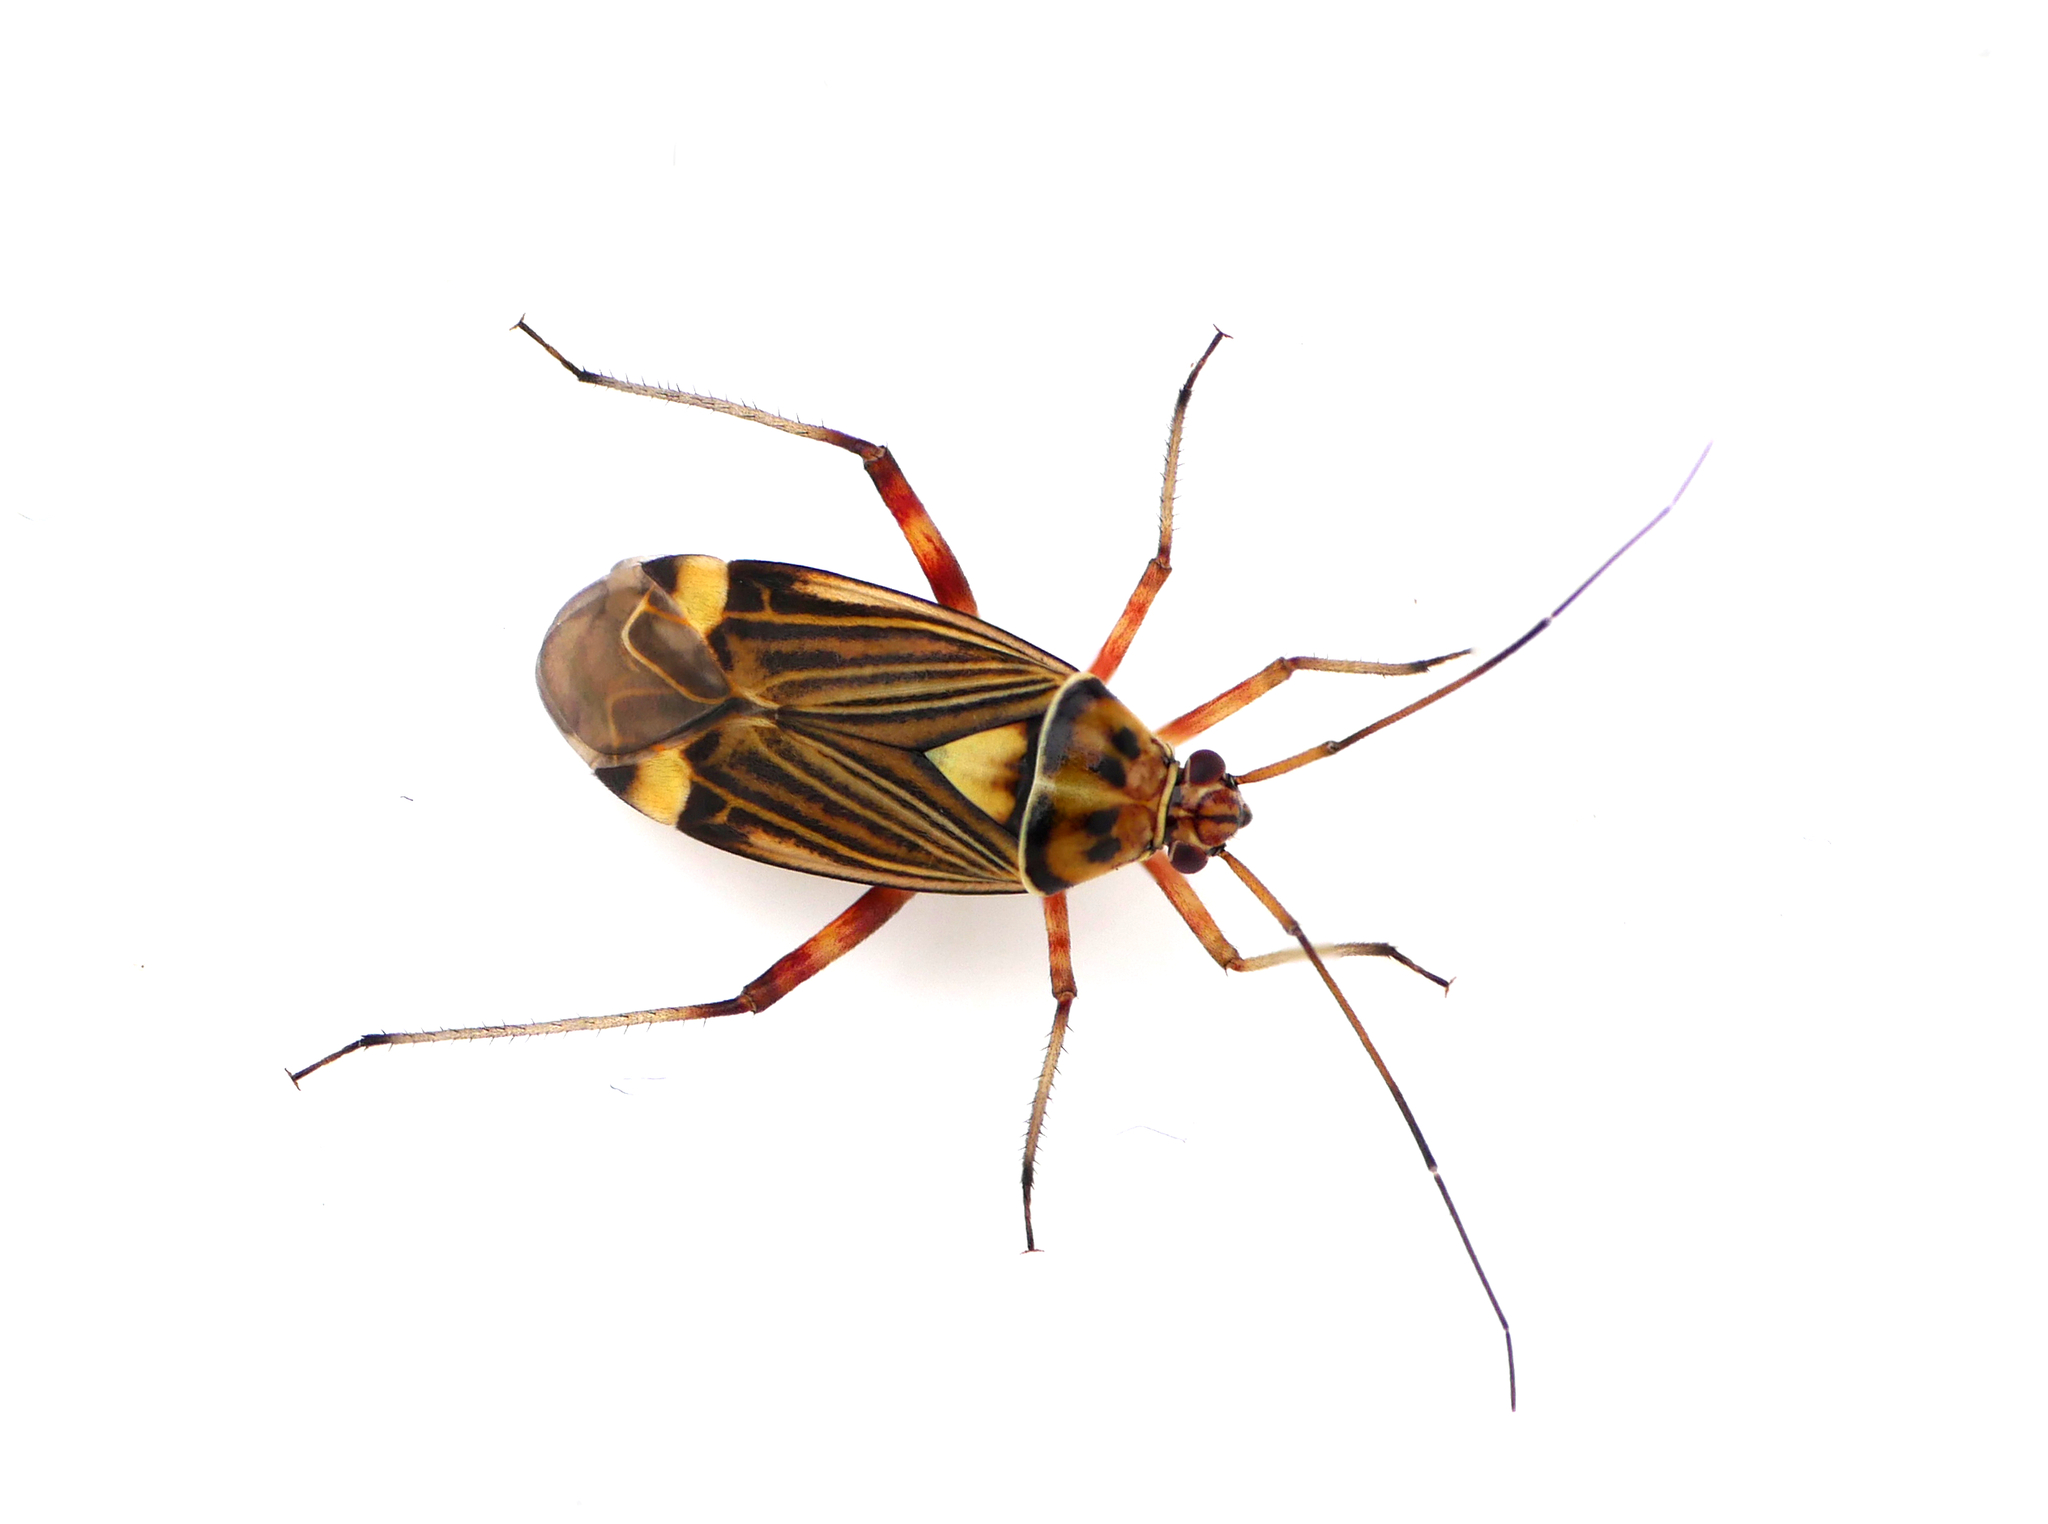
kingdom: Animalia
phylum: Arthropoda
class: Insecta
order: Hemiptera
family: Miridae
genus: Rhabdomiris
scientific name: Rhabdomiris striatellus
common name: Plant bug
